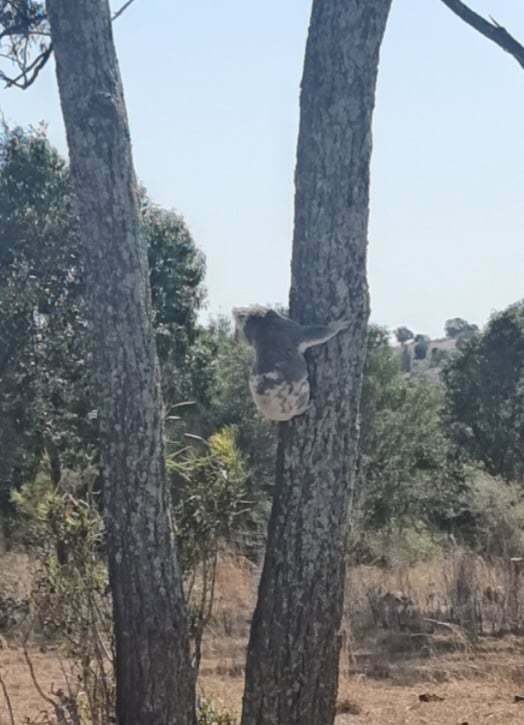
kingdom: Animalia
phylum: Chordata
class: Mammalia
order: Diprotodontia
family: Phascolarctidae
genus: Phascolarctos
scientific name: Phascolarctos cinereus
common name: Koala
